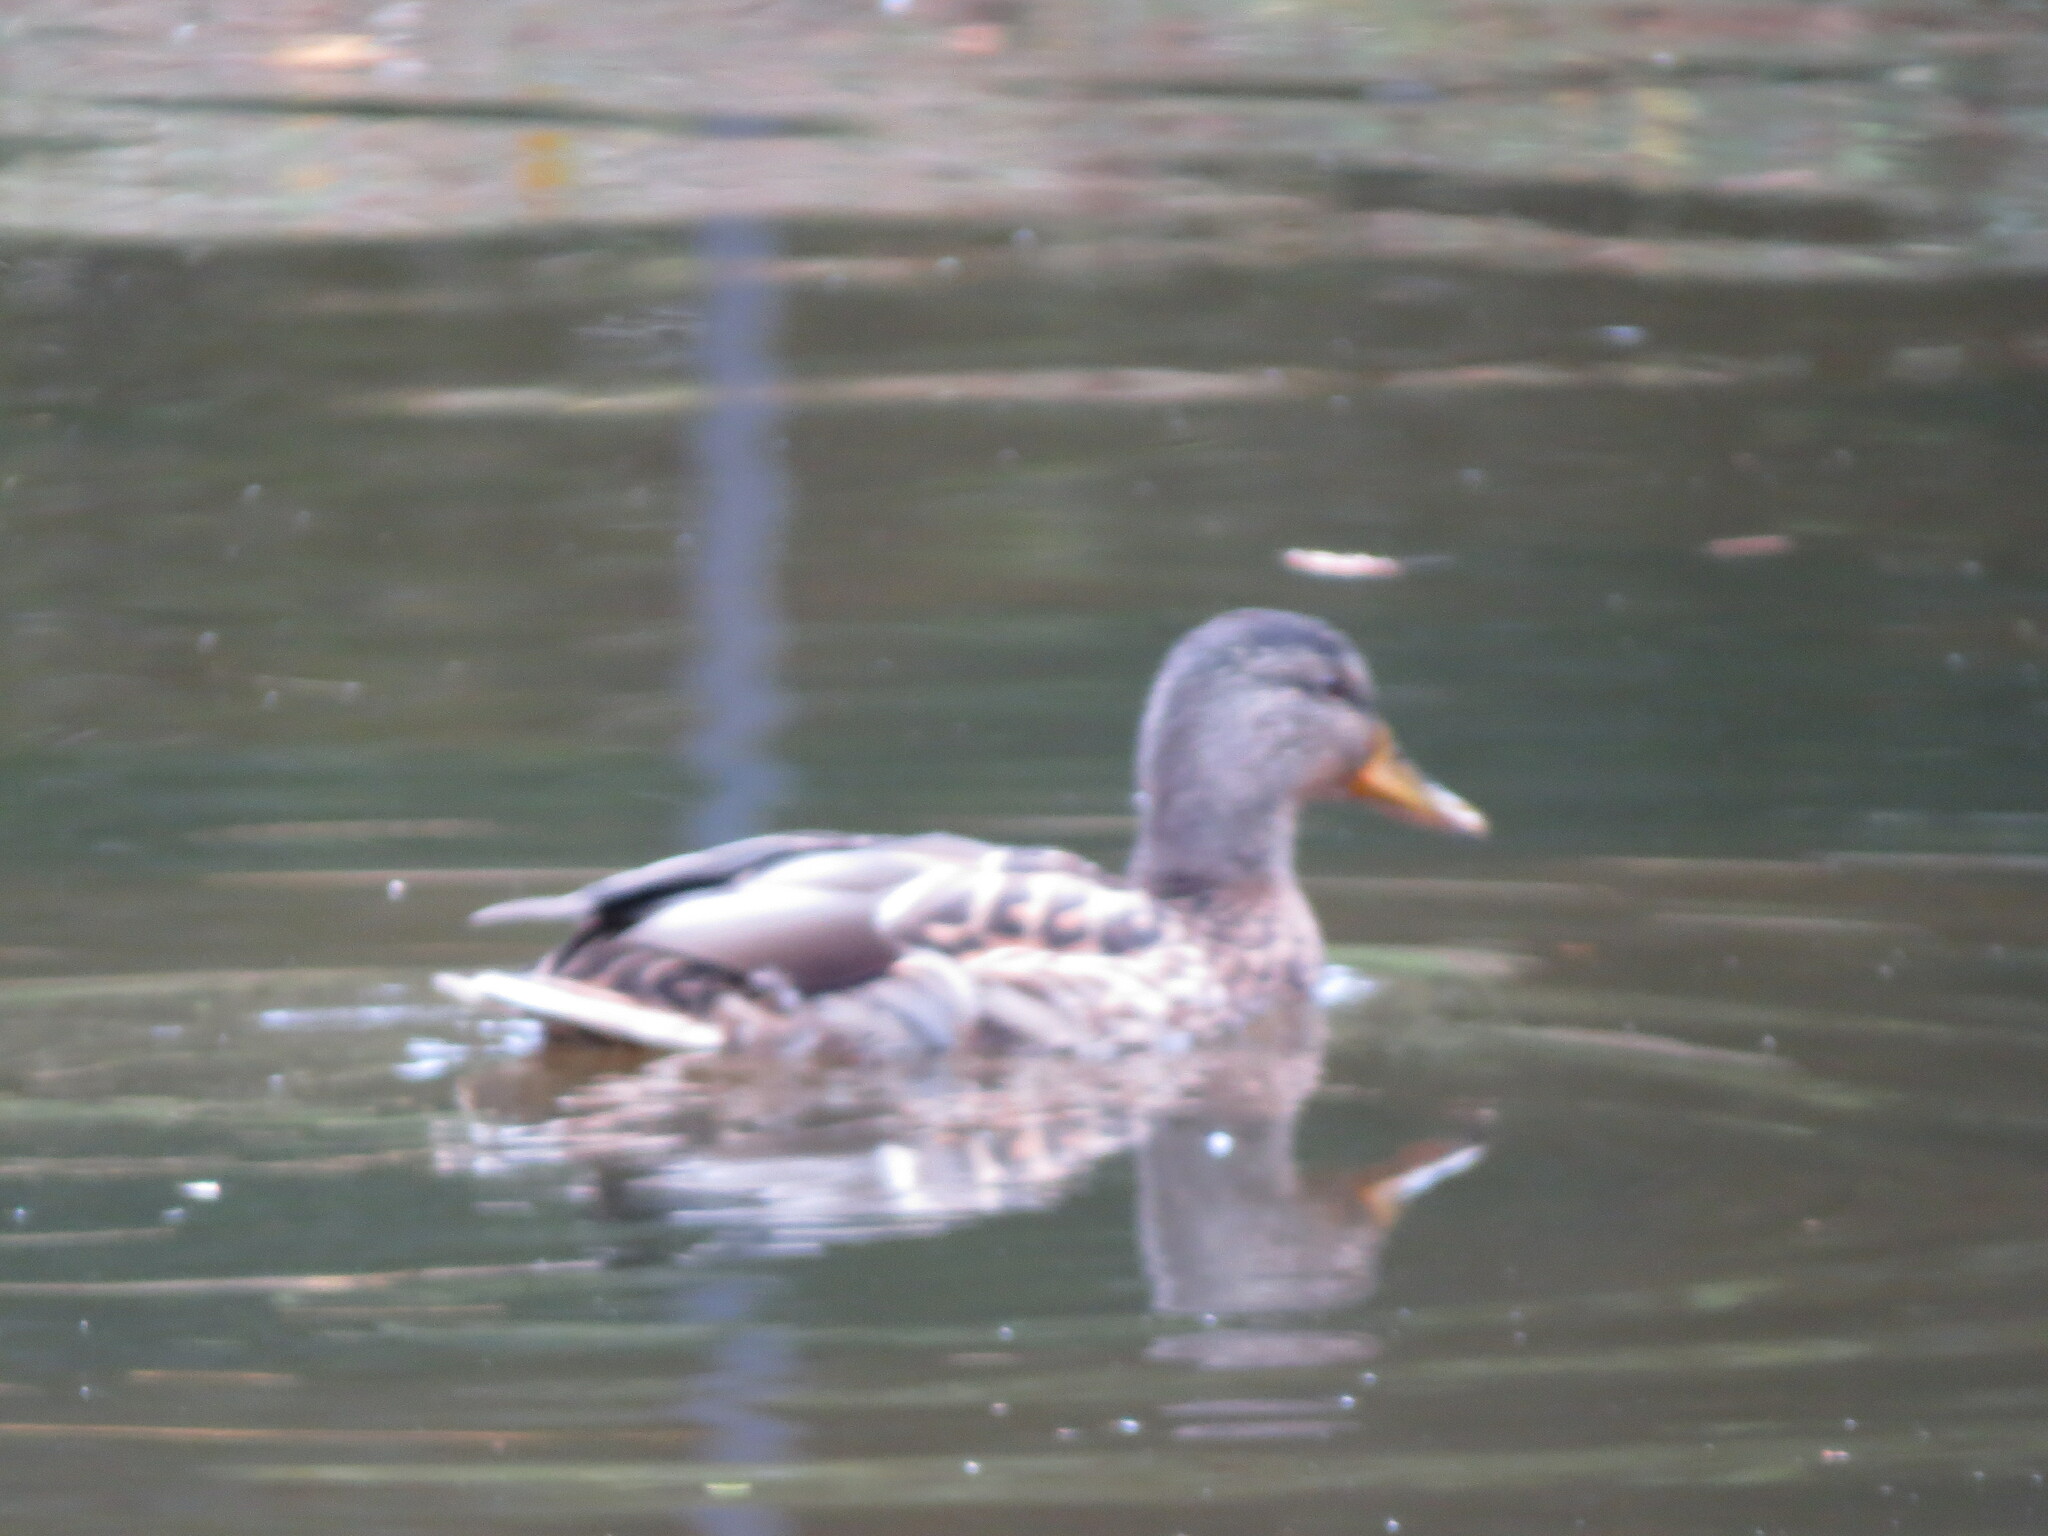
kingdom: Animalia
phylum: Chordata
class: Aves
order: Anseriformes
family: Anatidae
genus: Anas
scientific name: Anas platyrhynchos
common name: Mallard
